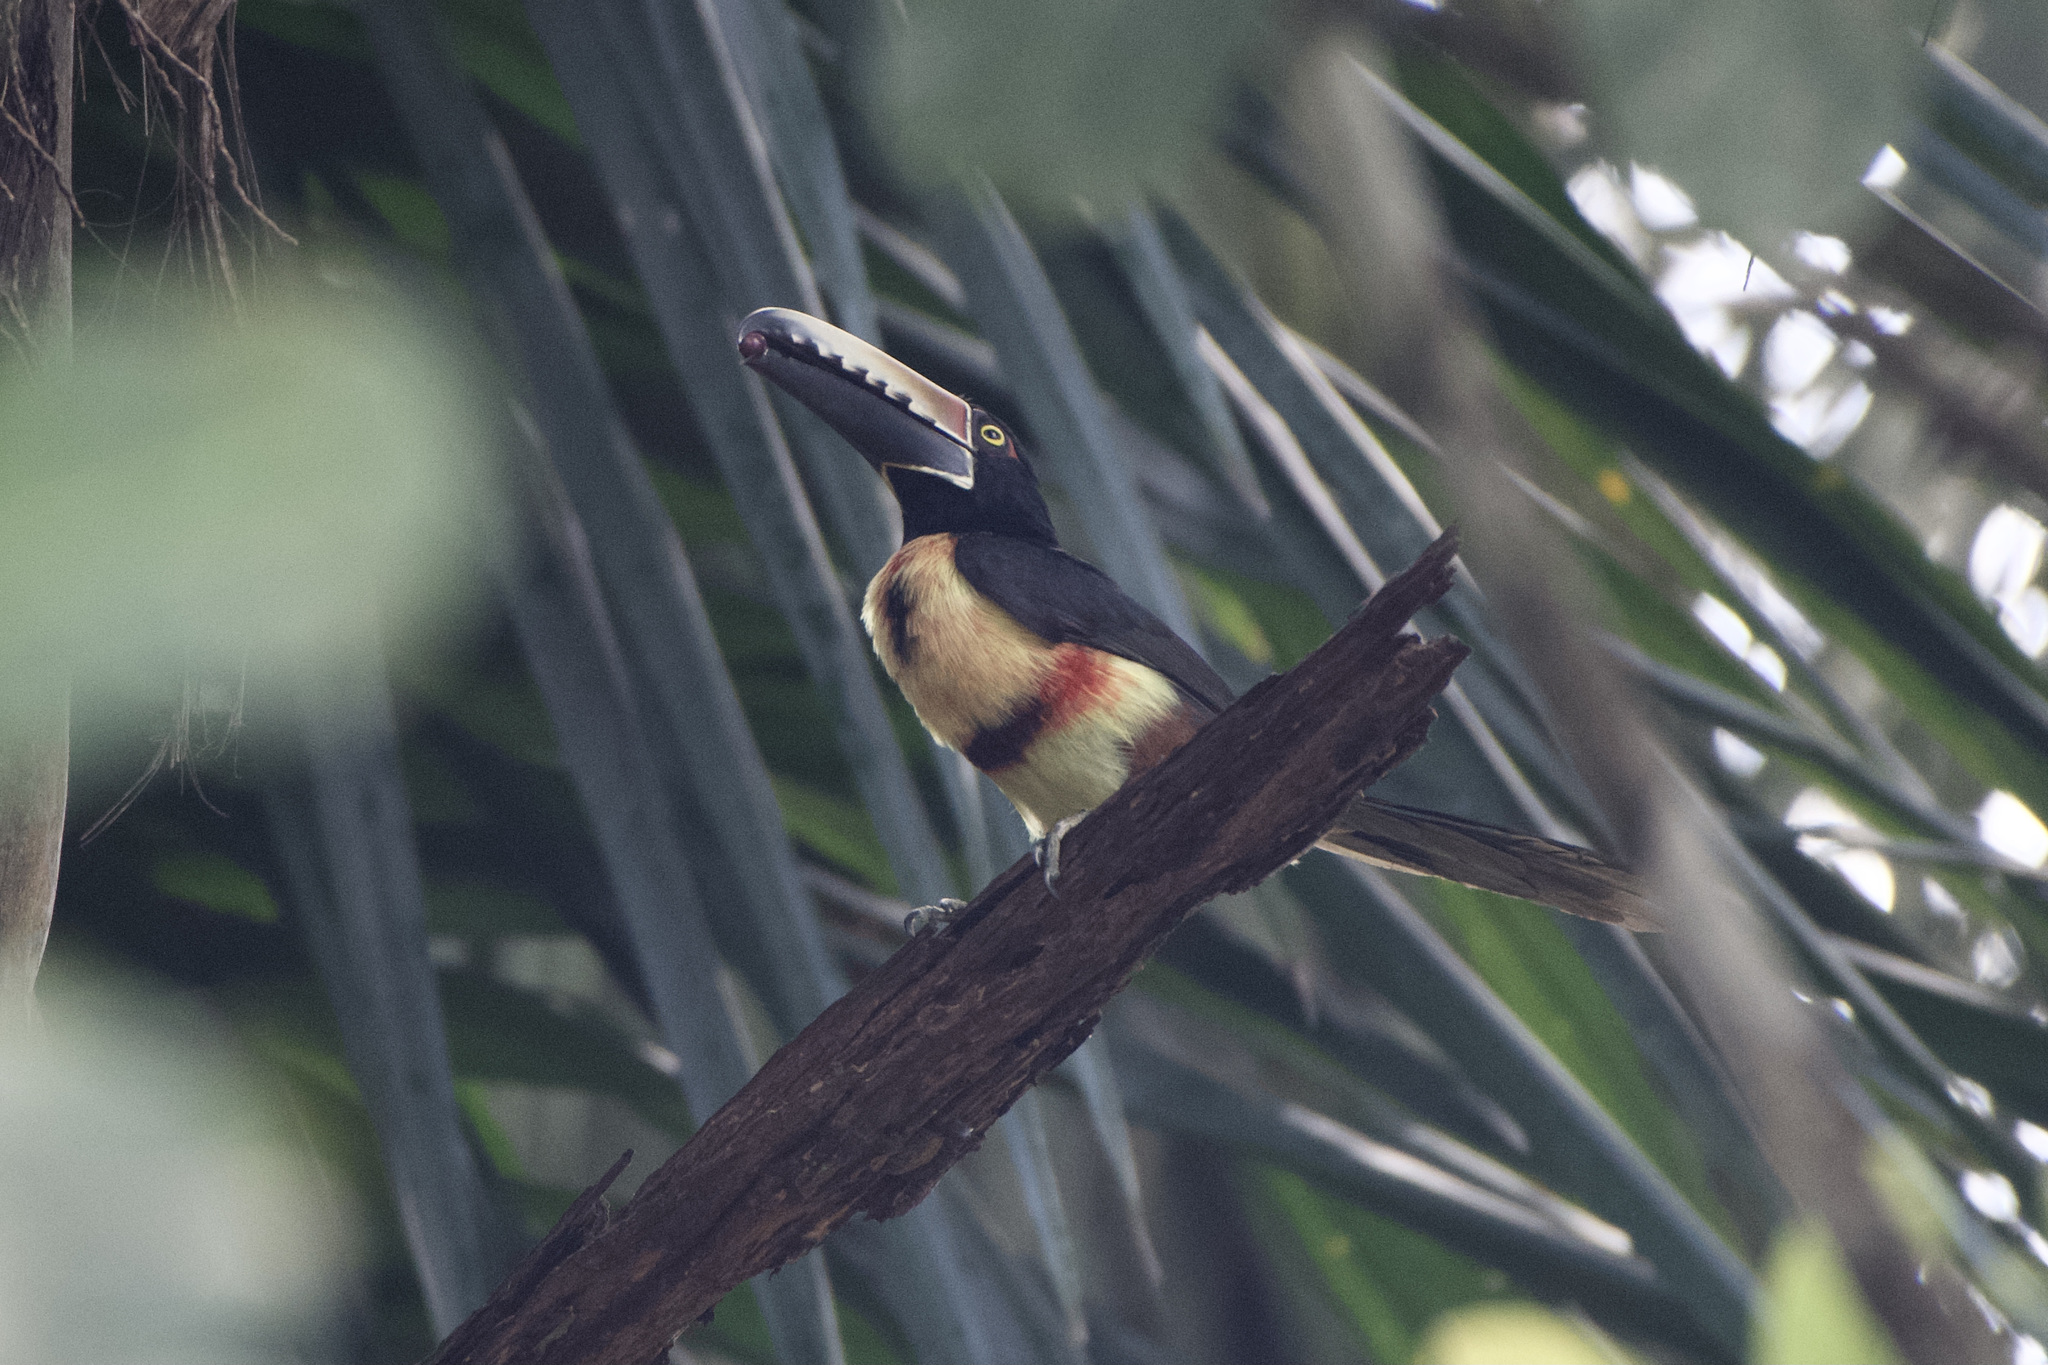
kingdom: Animalia
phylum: Chordata
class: Aves
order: Piciformes
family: Ramphastidae
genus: Pteroglossus
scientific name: Pteroglossus torquatus
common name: Collared aracari
